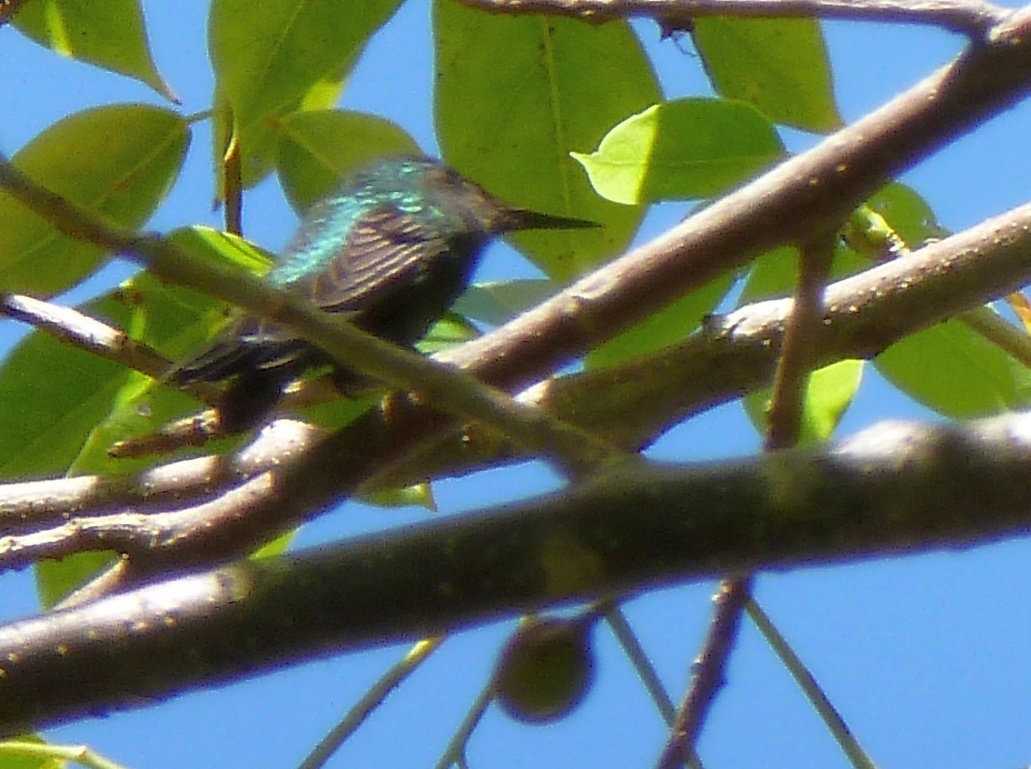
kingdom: Animalia
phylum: Chordata
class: Aves
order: Apodiformes
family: Trochilidae
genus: Orthorhyncus
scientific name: Orthorhyncus cristatus
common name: Antillean crested hummingbird
